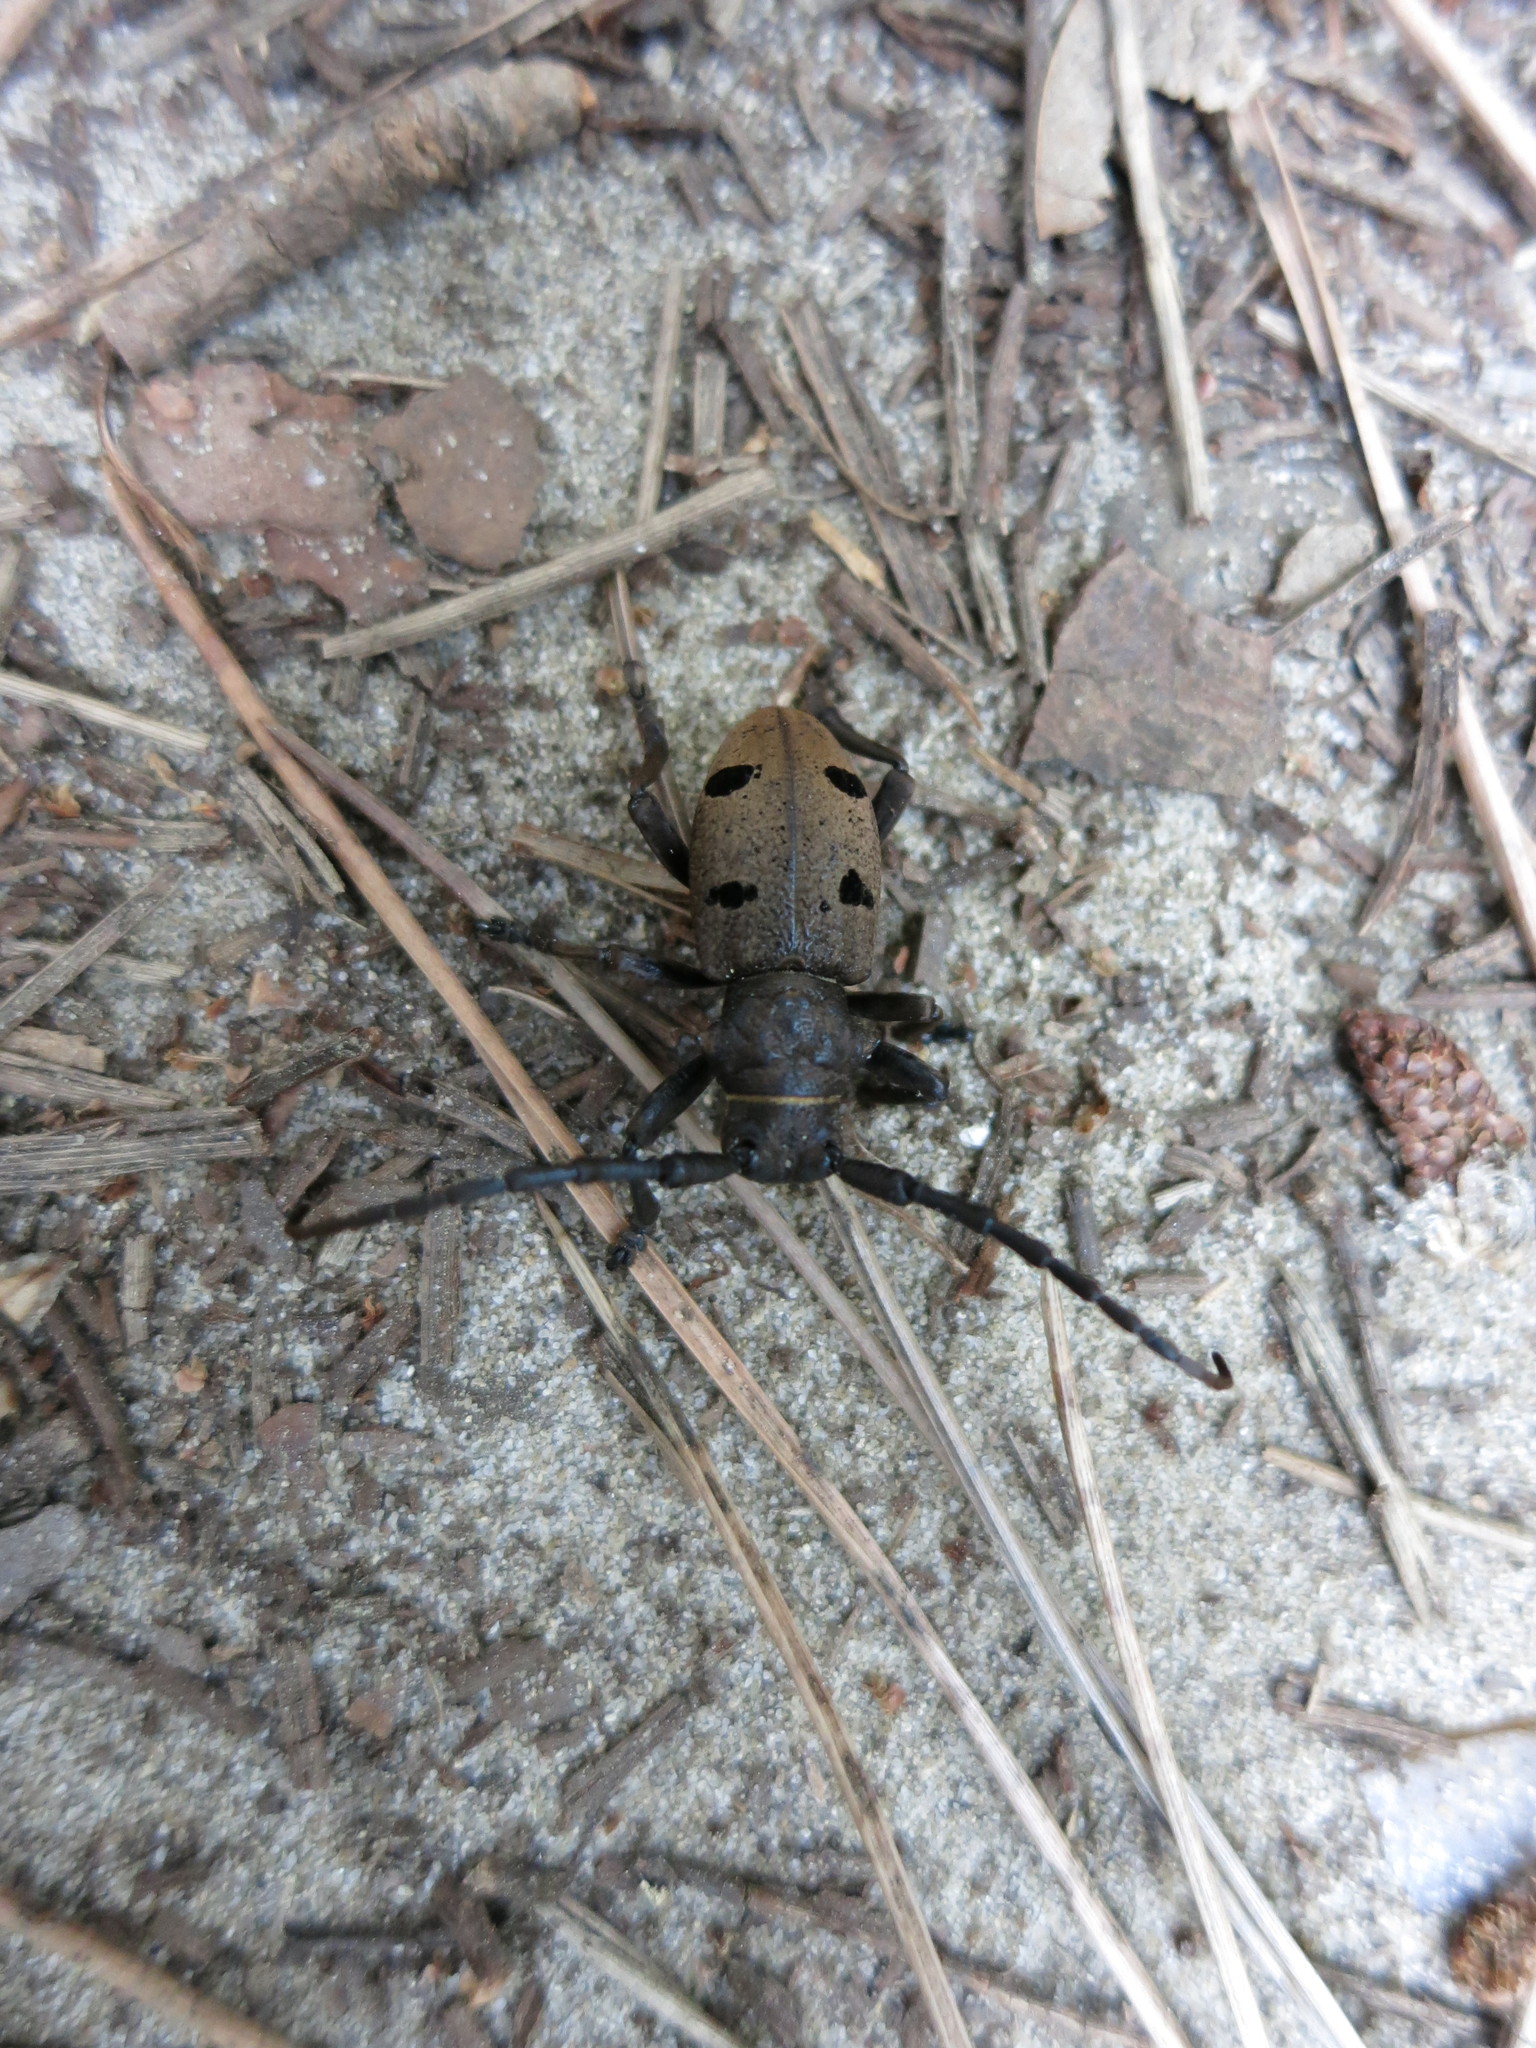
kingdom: Animalia
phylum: Arthropoda
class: Insecta
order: Coleoptera
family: Cerambycidae
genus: Herophila
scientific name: Herophila tristis
